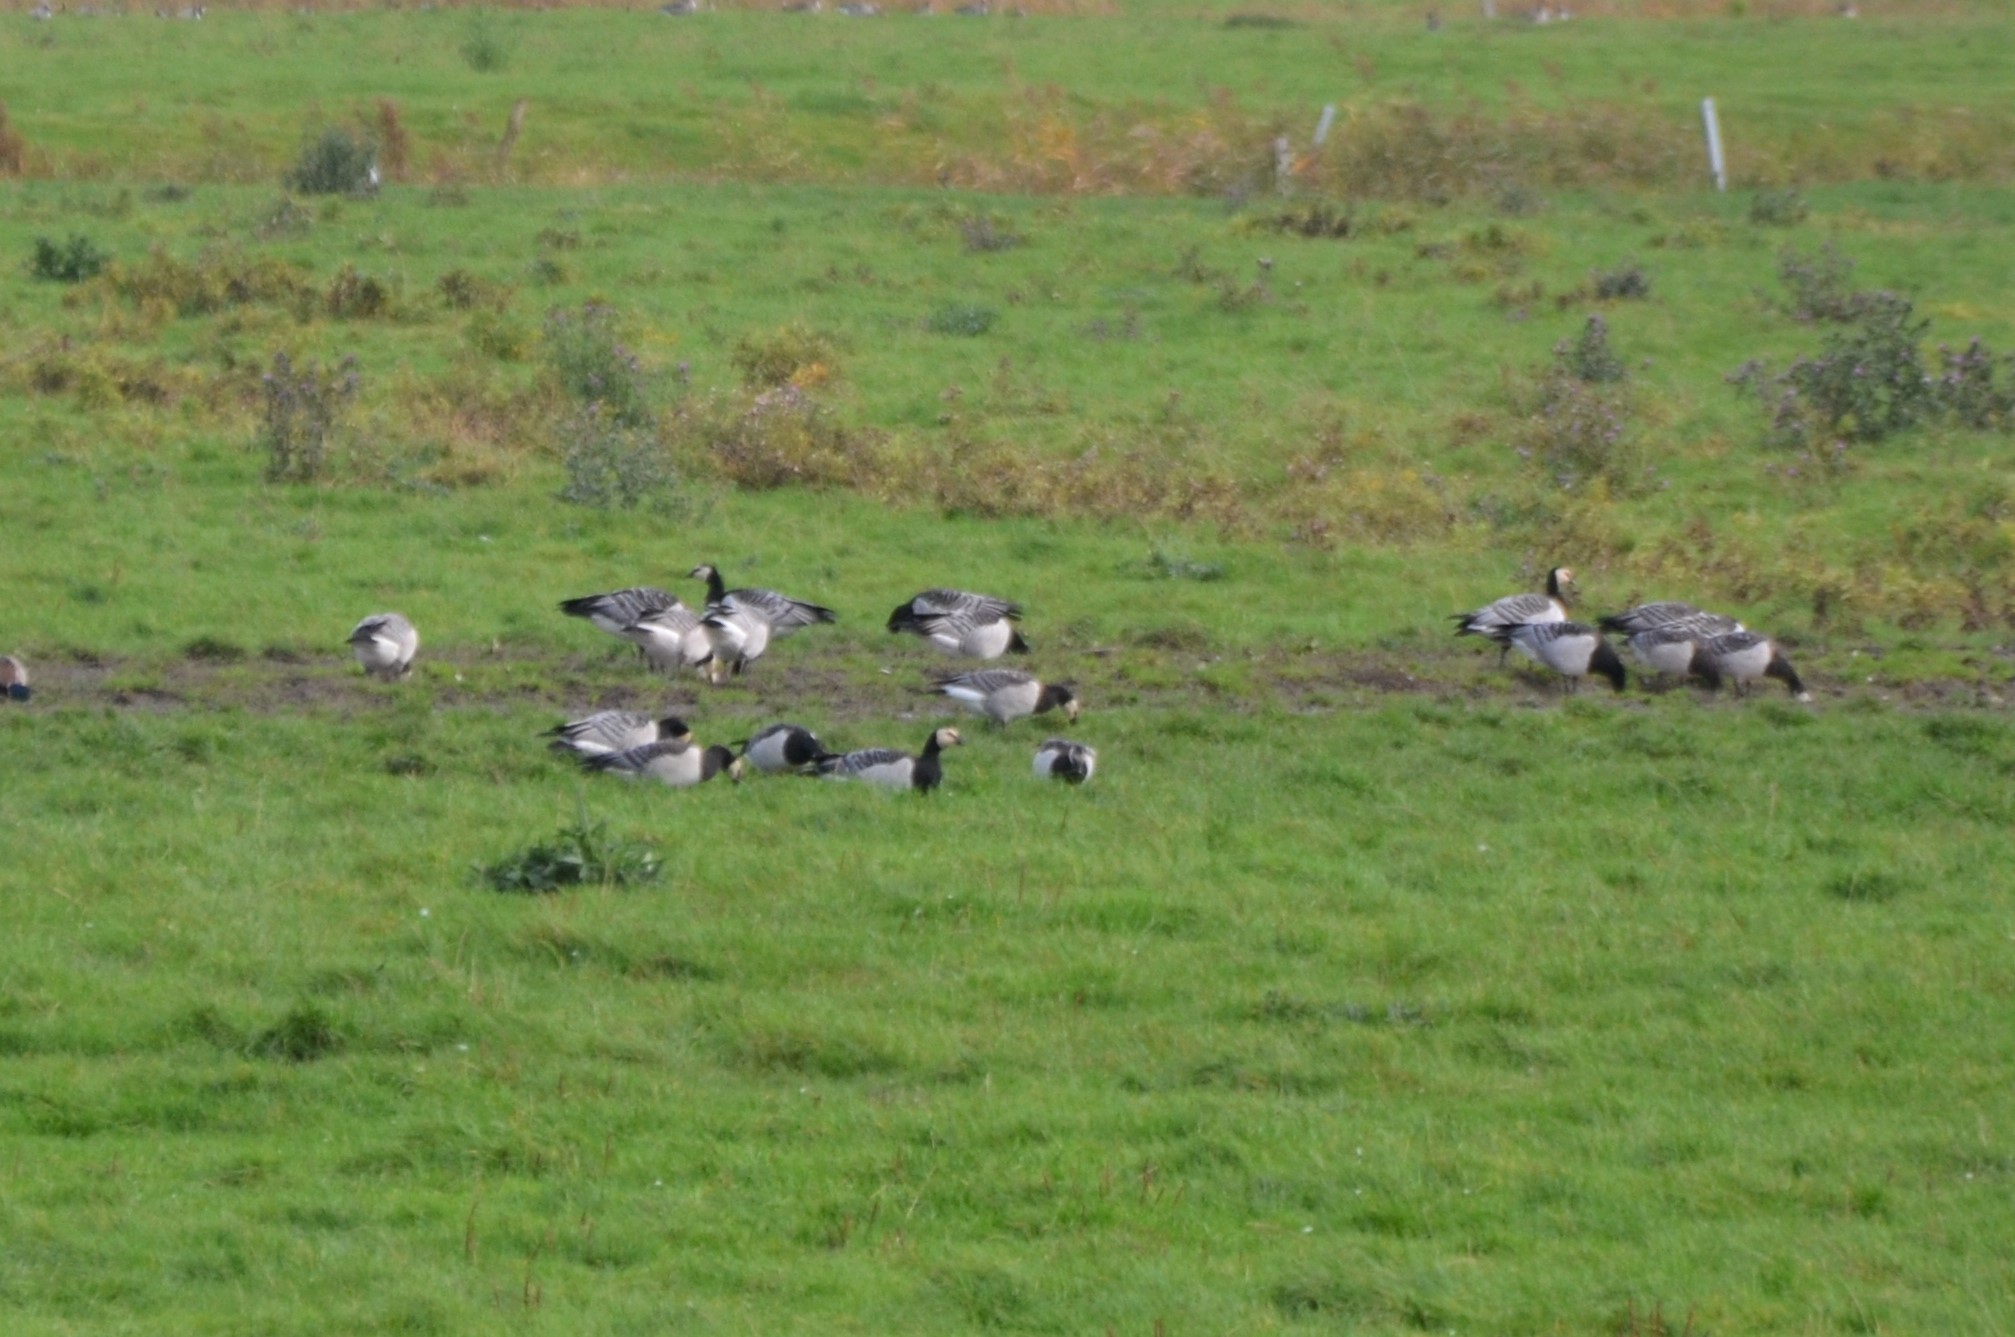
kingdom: Animalia
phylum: Chordata
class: Aves
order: Anseriformes
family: Anatidae
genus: Branta
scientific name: Branta leucopsis
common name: Barnacle goose
